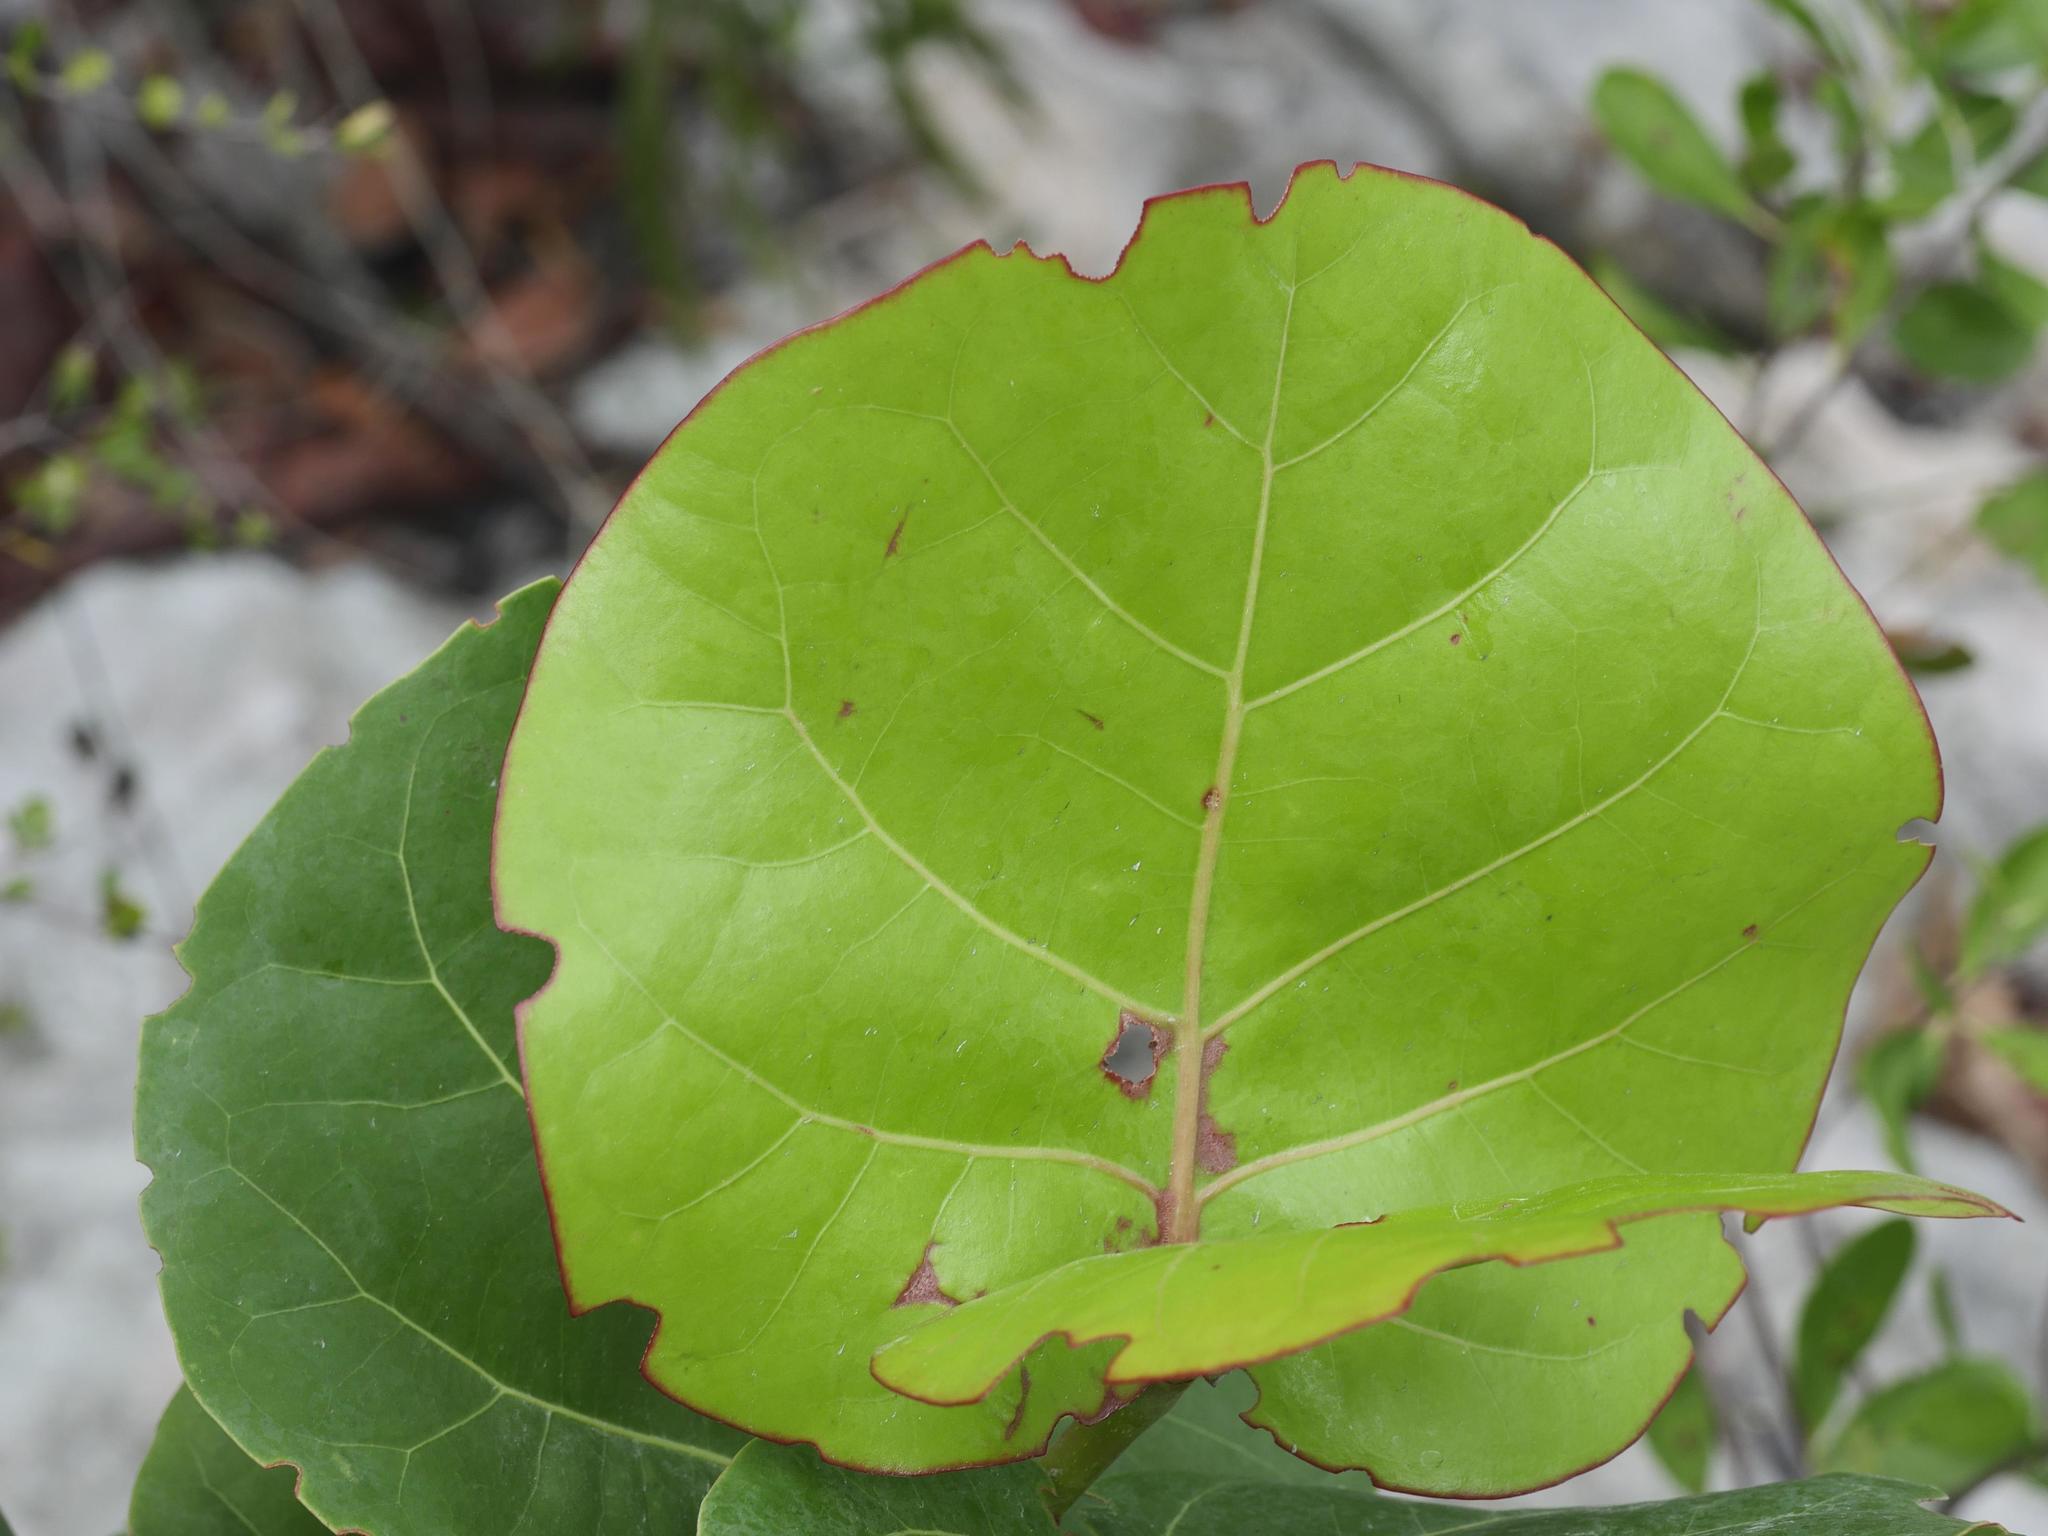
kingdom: Plantae
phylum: Tracheophyta
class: Magnoliopsida
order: Caryophyllales
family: Polygonaceae
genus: Coccoloba
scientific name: Coccoloba uvifera
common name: Seagrape
